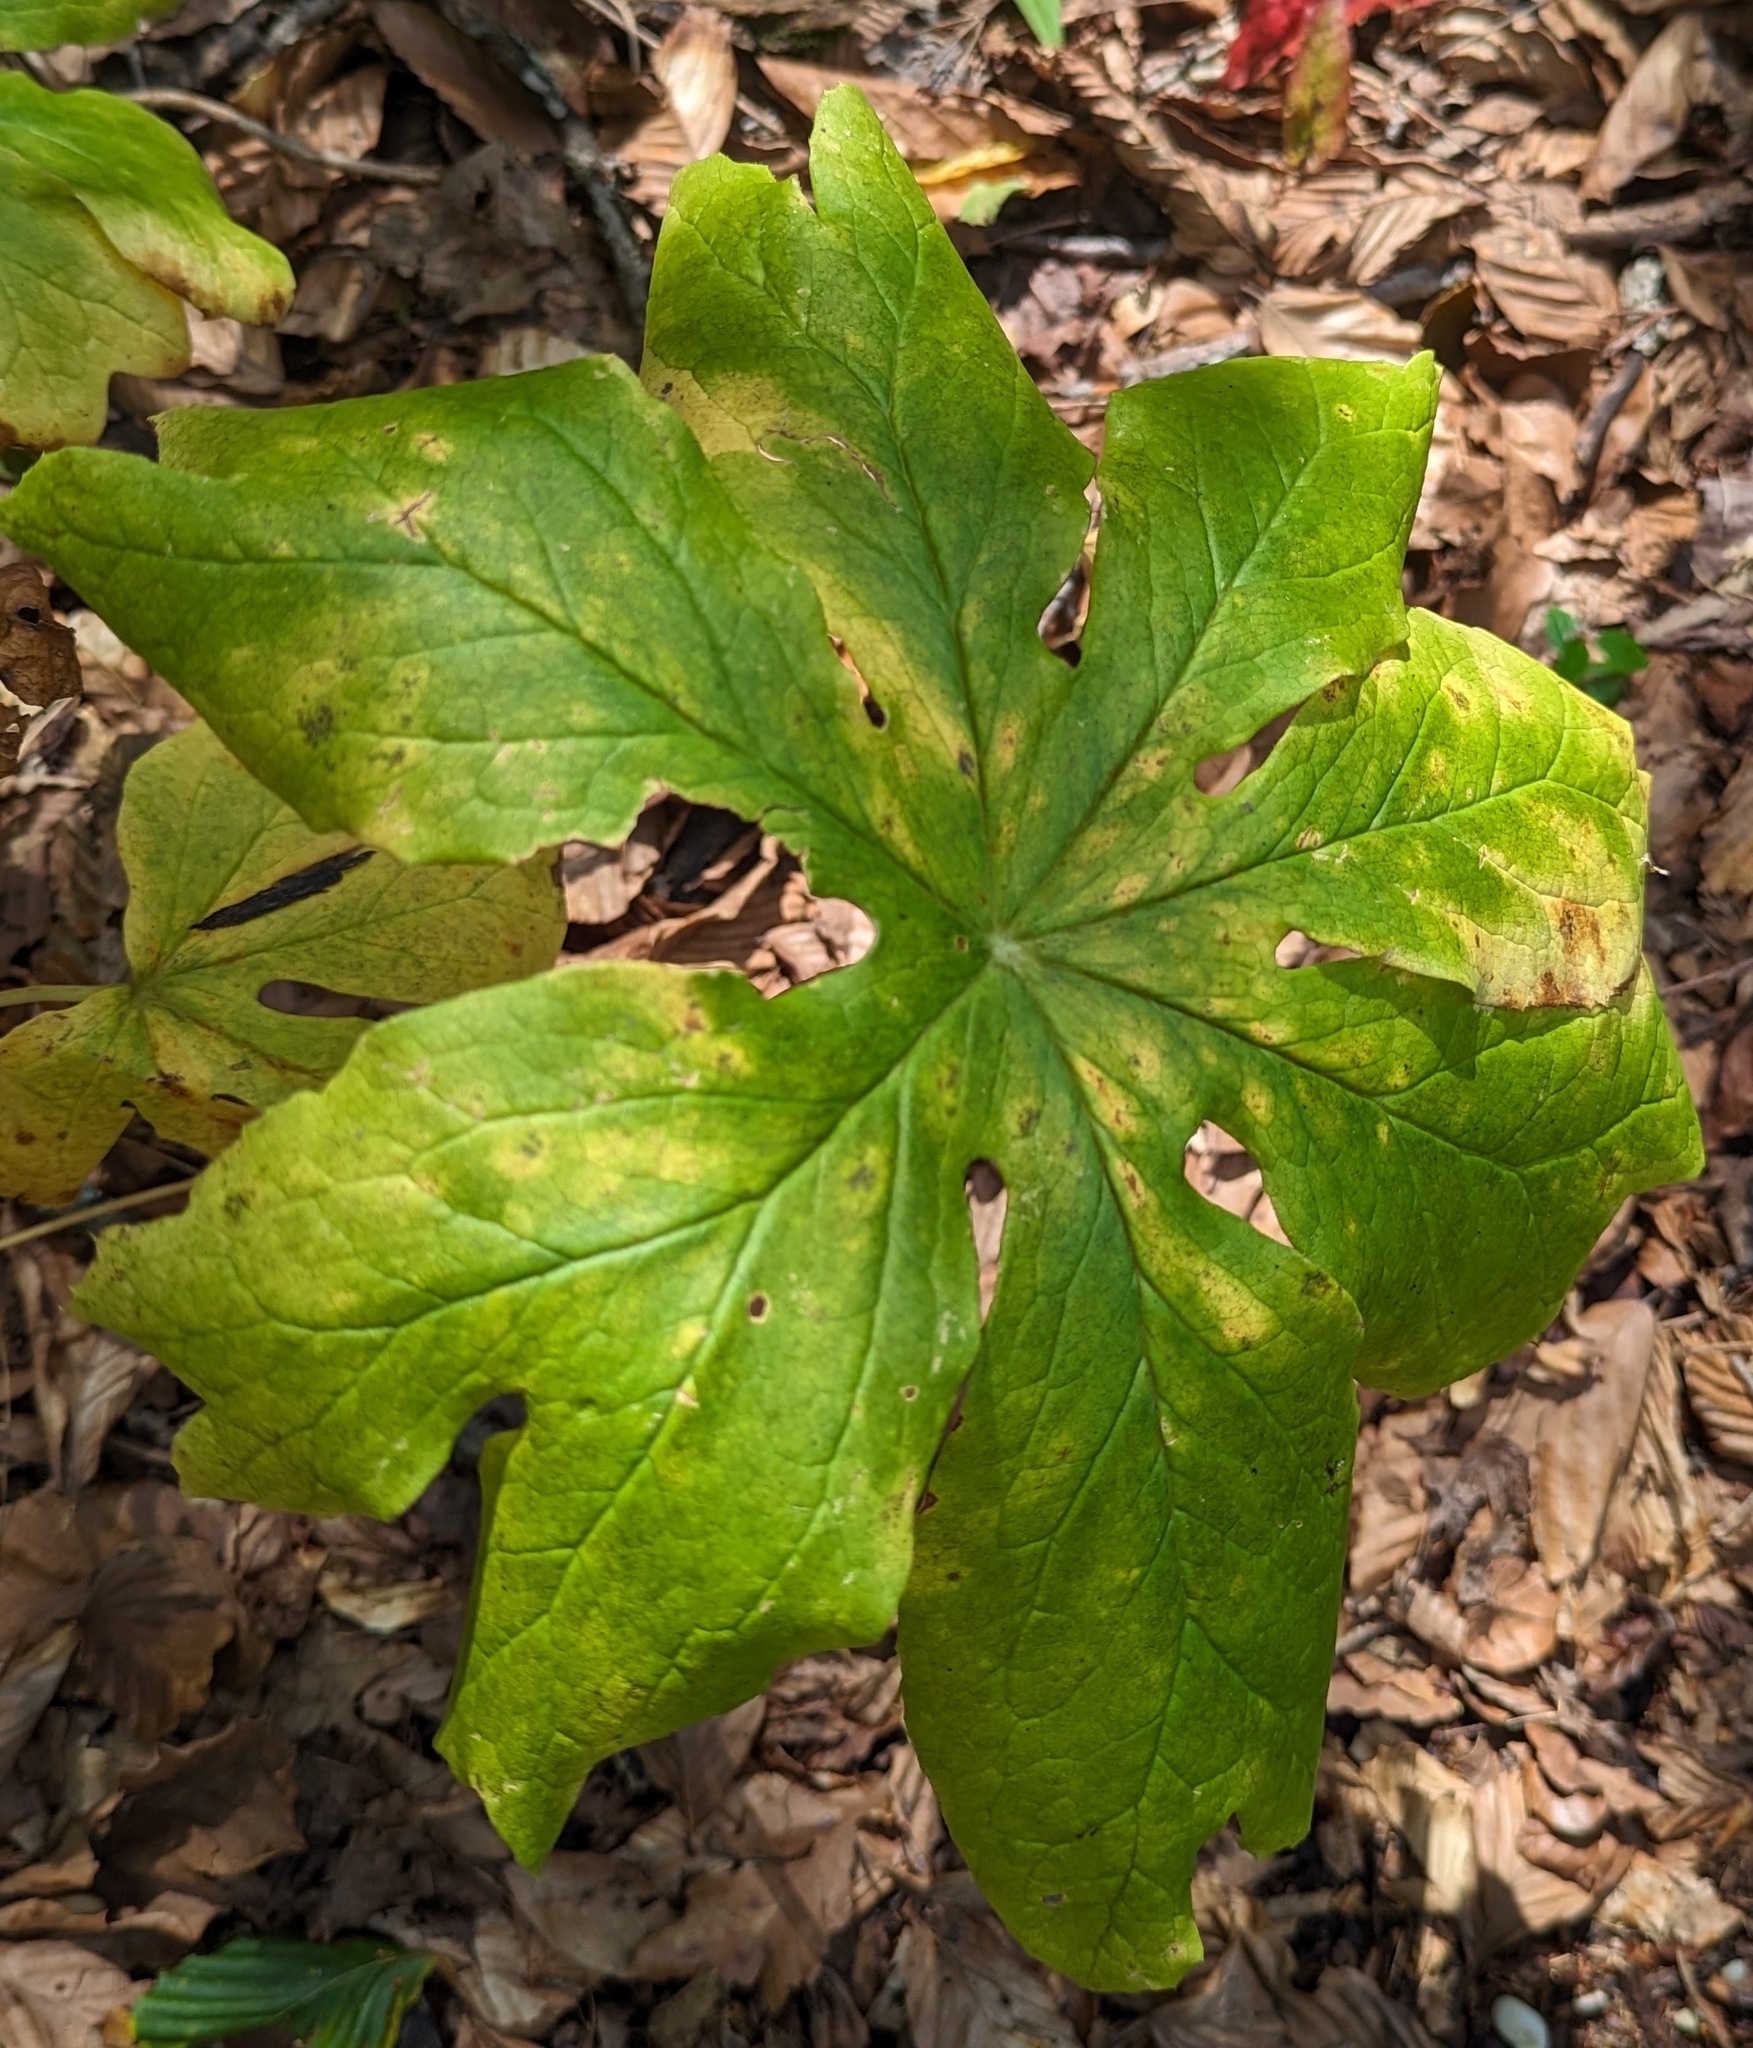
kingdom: Plantae
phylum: Tracheophyta
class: Magnoliopsida
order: Ranunculales
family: Berberidaceae
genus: Podophyllum
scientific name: Podophyllum peltatum
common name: Wild mandrake
